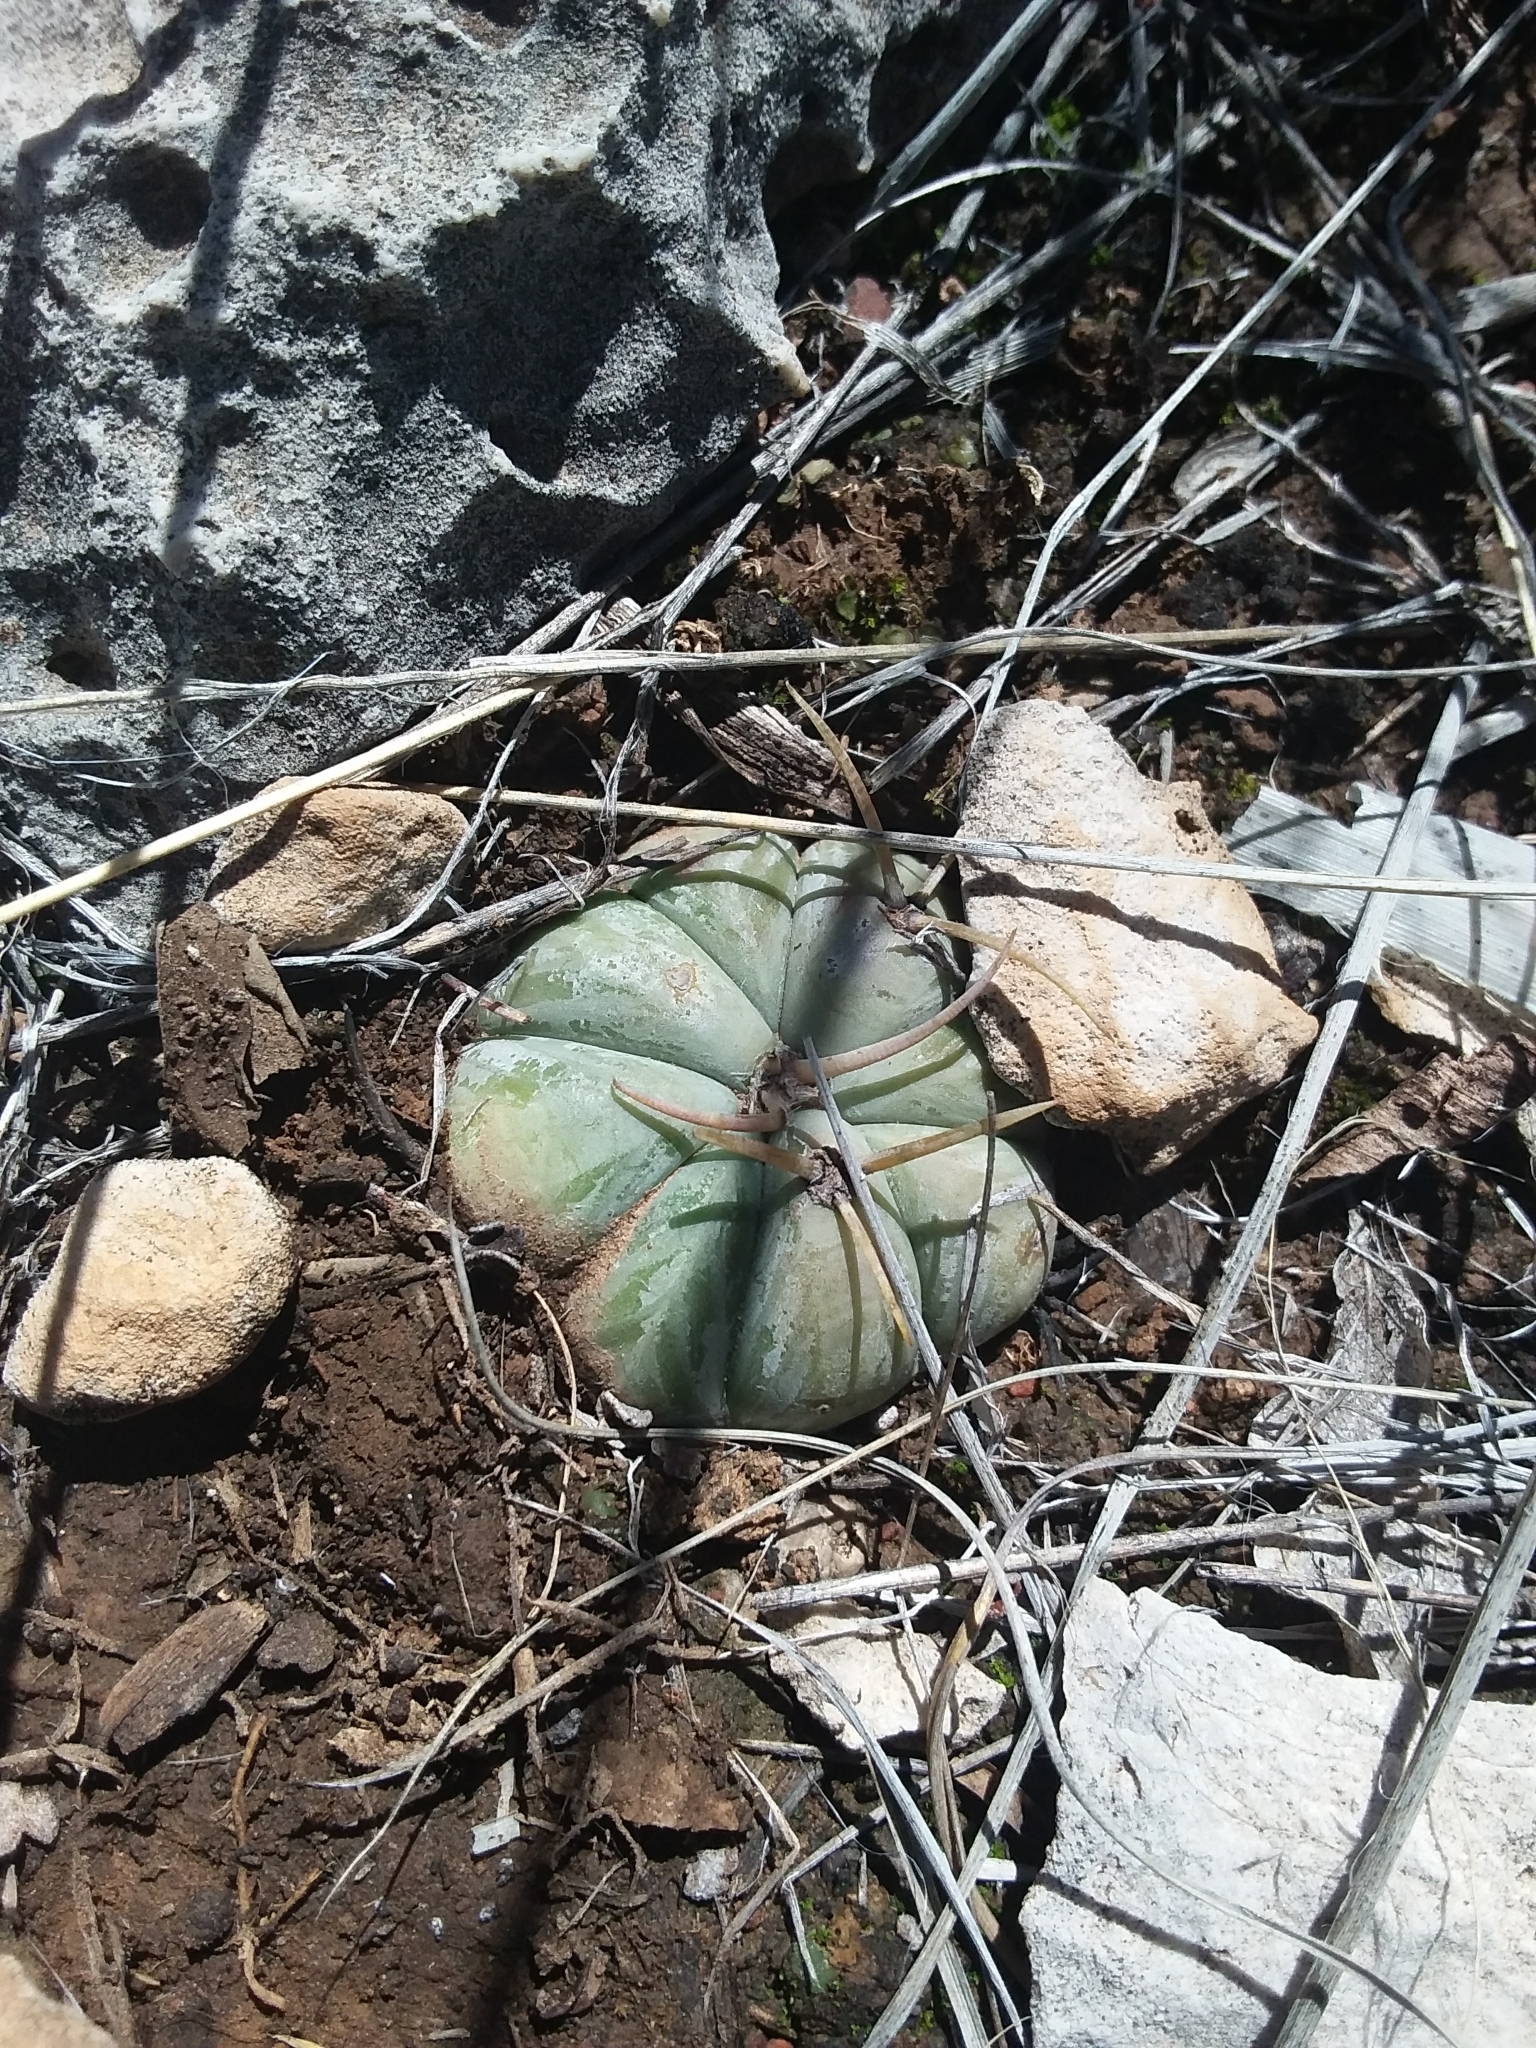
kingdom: Plantae
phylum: Tracheophyta
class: Magnoliopsida
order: Caryophyllales
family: Cactaceae
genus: Echinocactus
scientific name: Echinocactus horizonthalonius
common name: Devilshead
